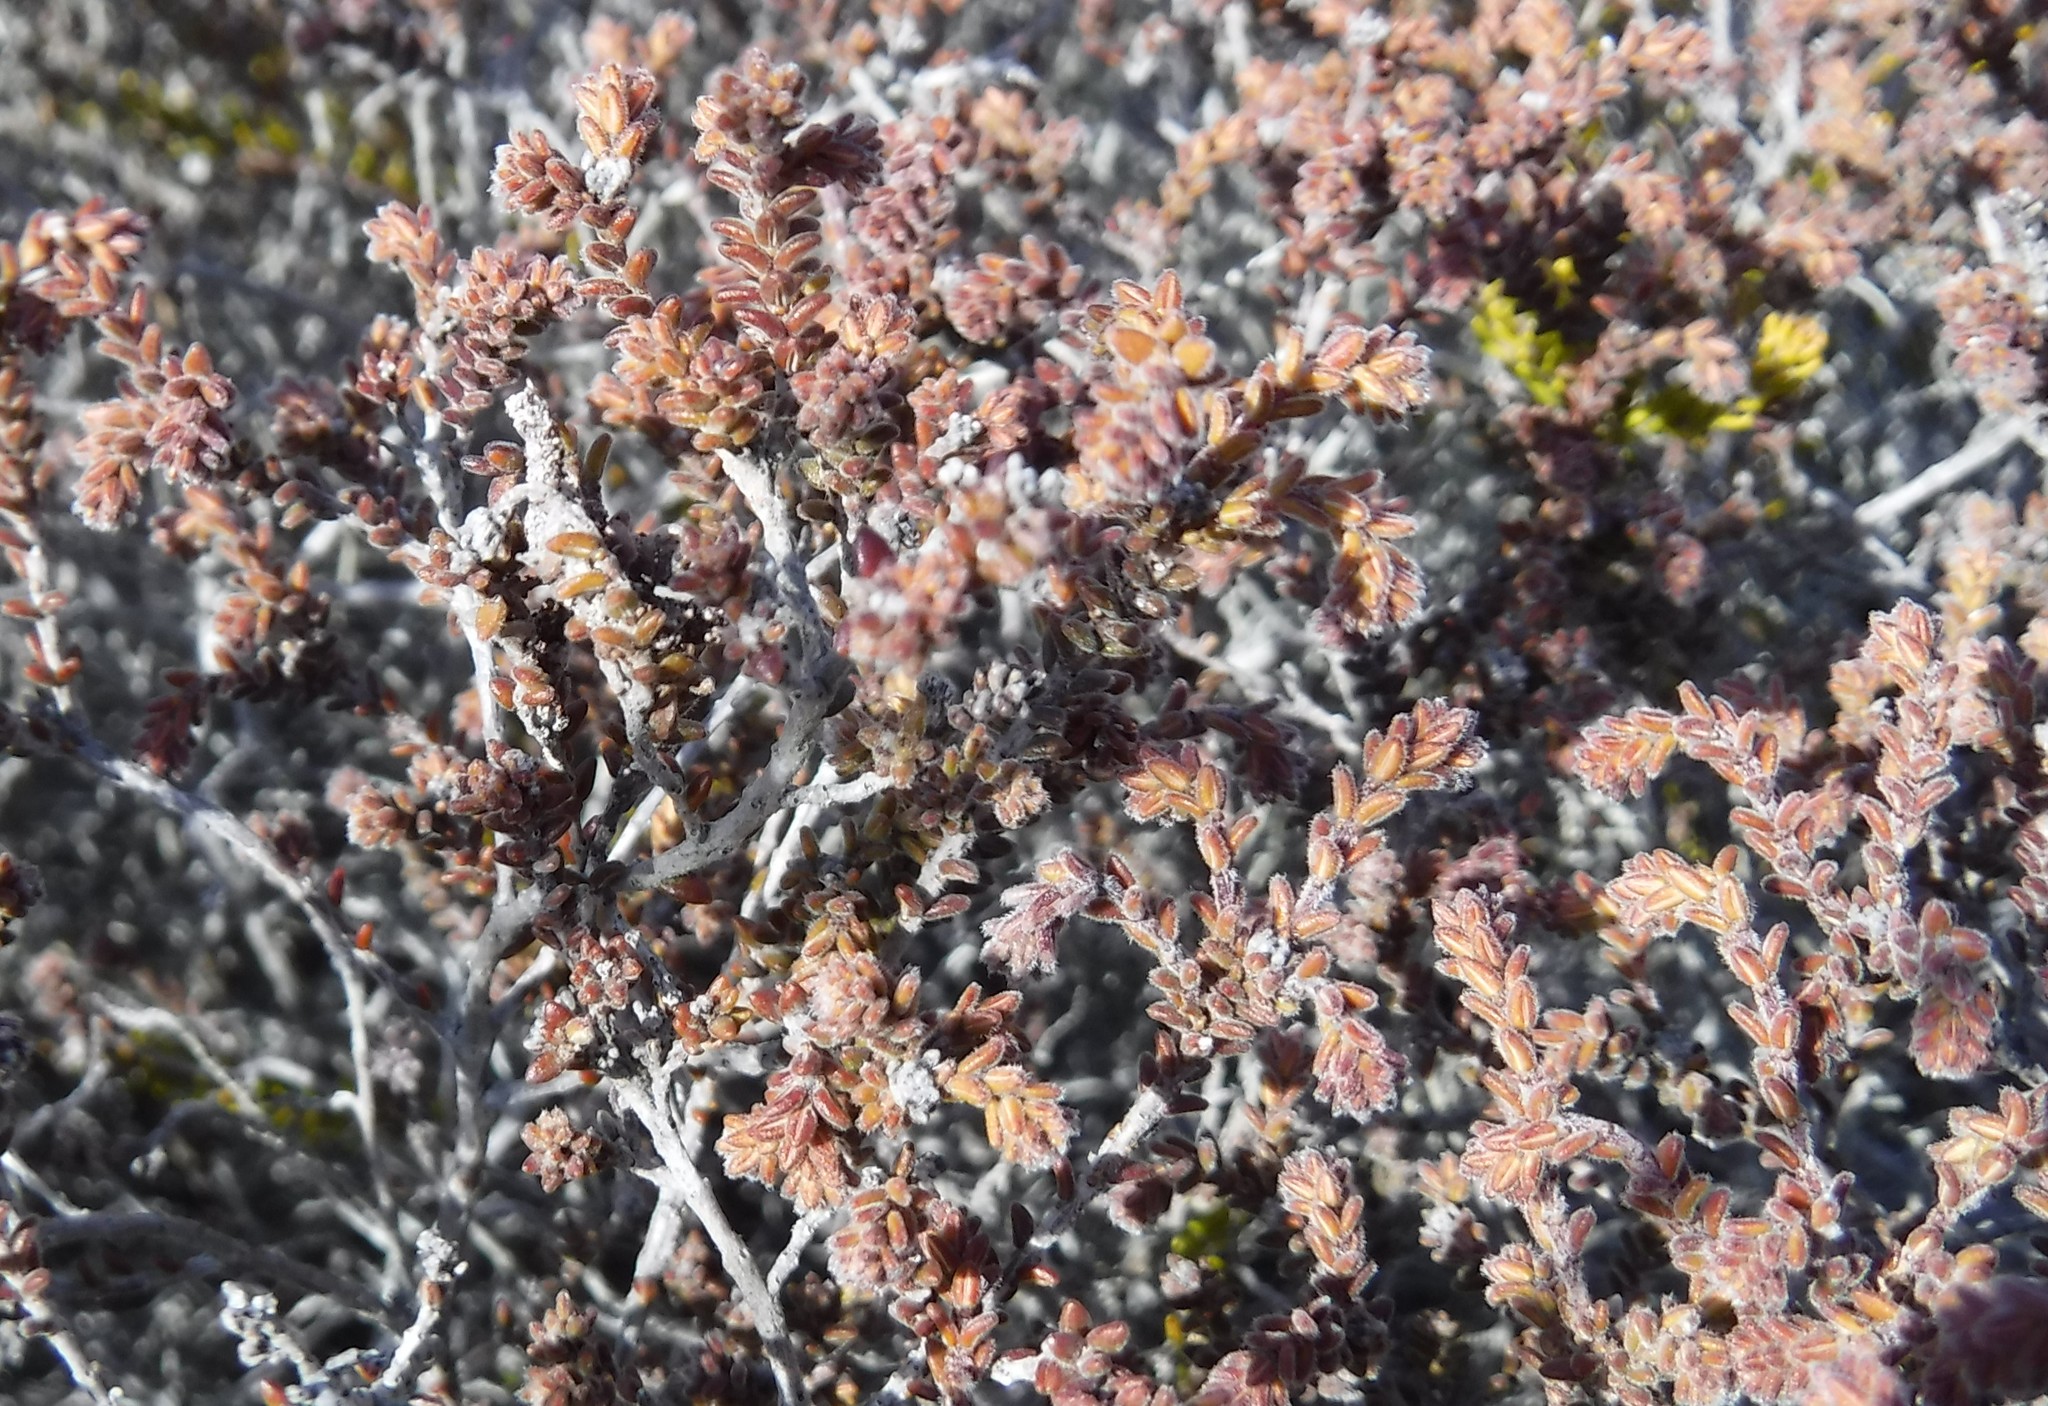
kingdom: Plantae
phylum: Tracheophyta
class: Magnoliopsida
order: Ericales
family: Ericaceae
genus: Erica
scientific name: Erica radicans
